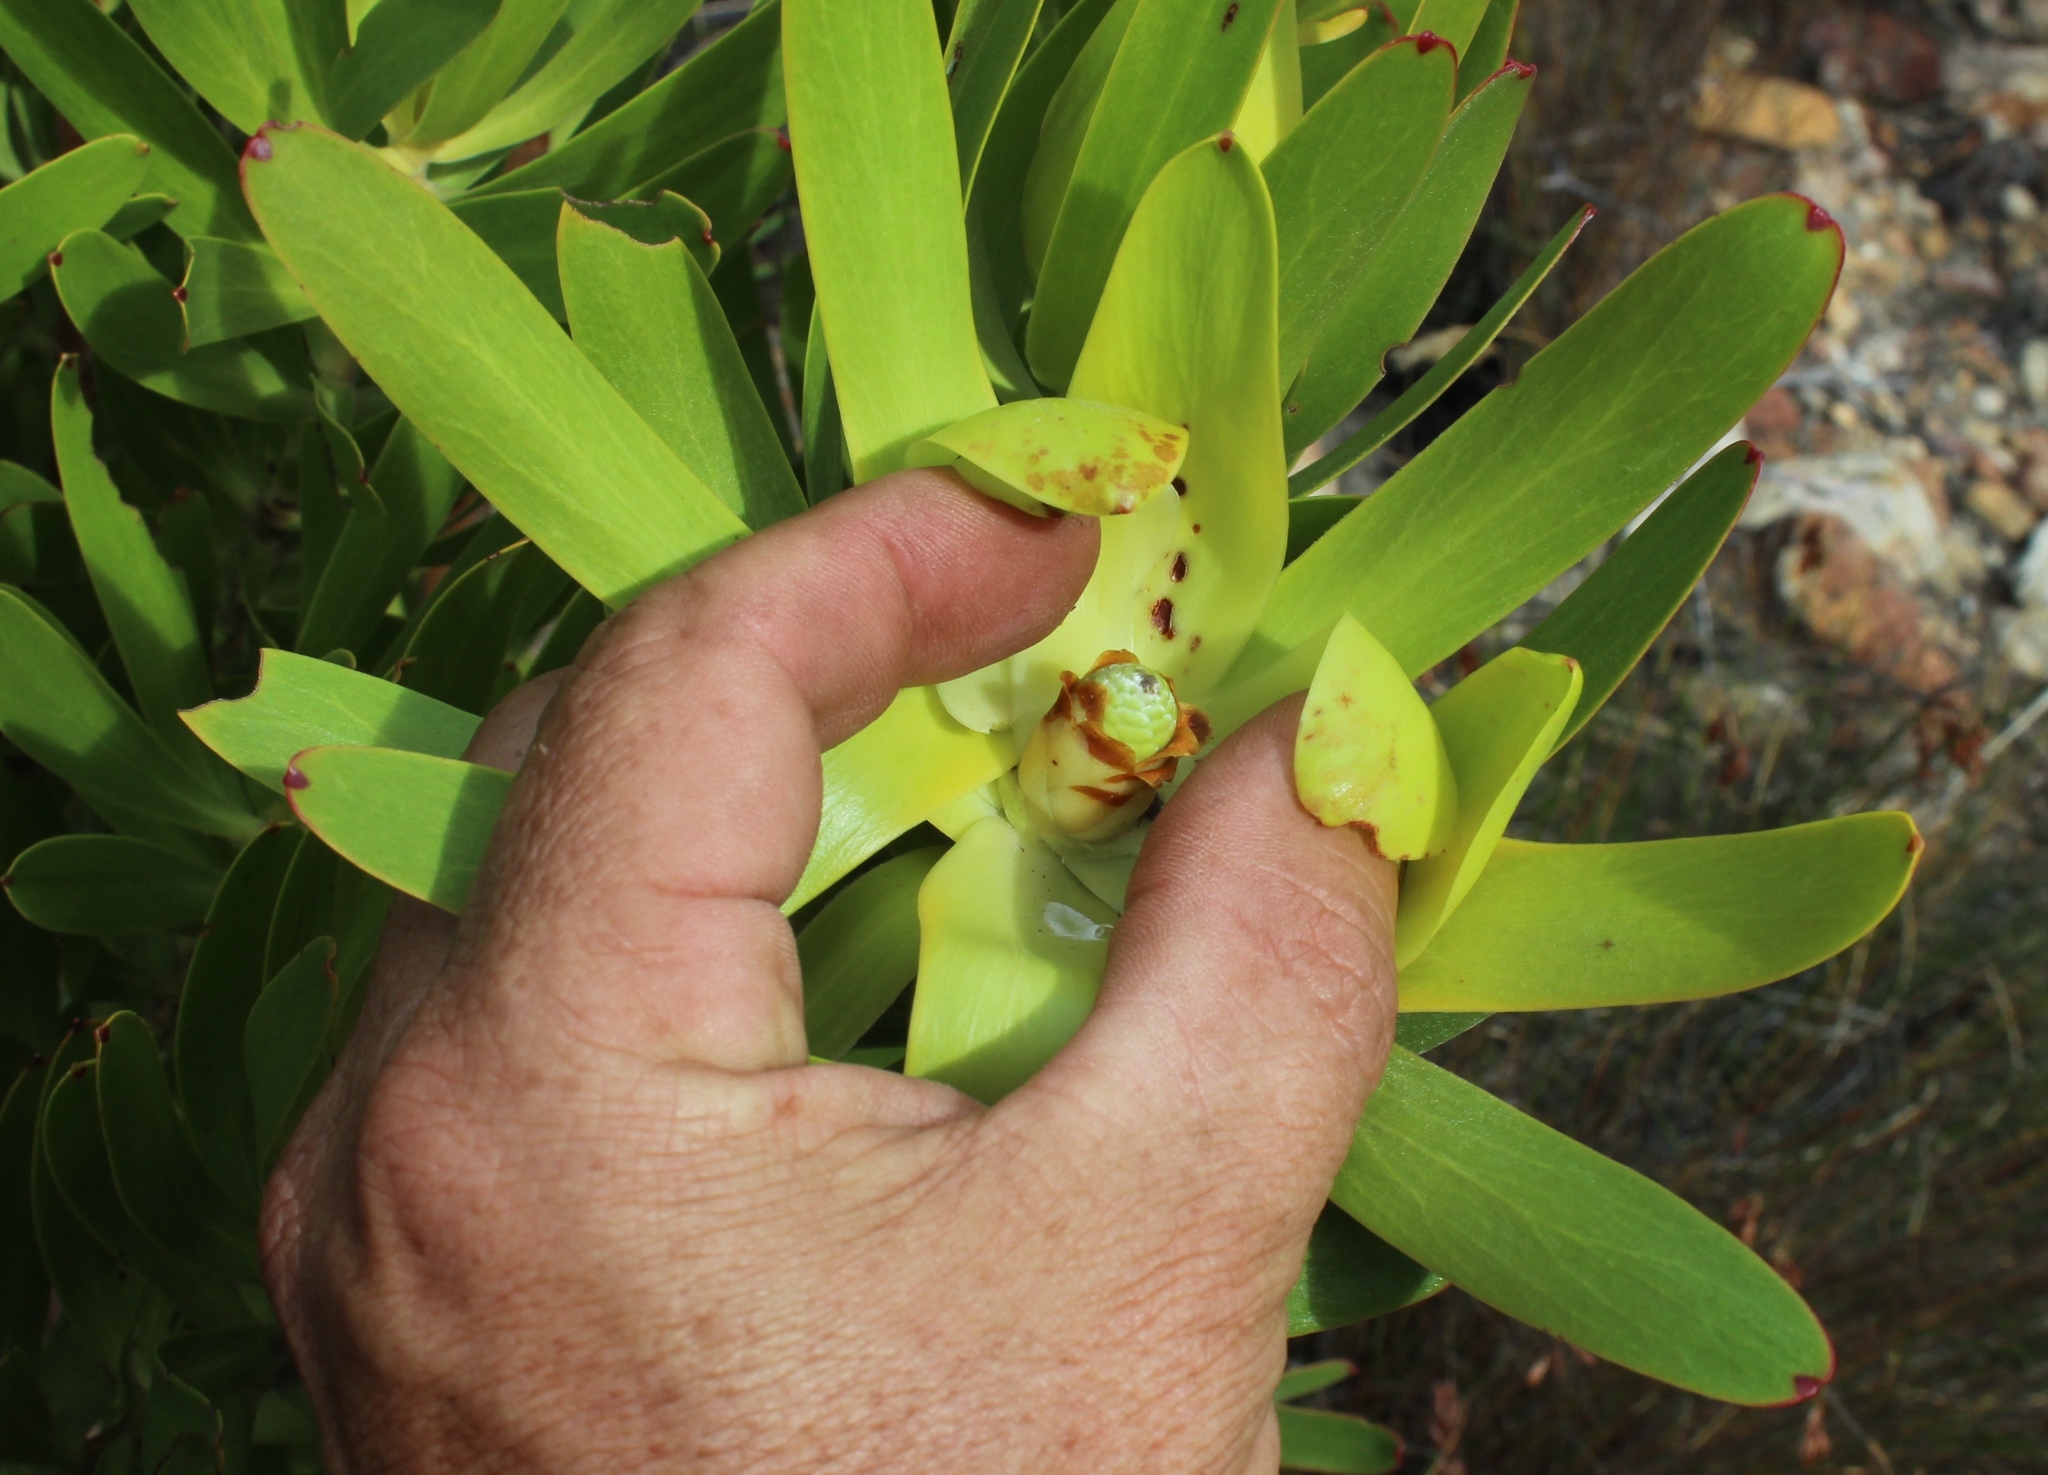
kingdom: Plantae
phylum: Tracheophyta
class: Magnoliopsida
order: Proteales
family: Proteaceae
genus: Leucadendron
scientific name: Leucadendron laureolum
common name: Golden sunshinebush
